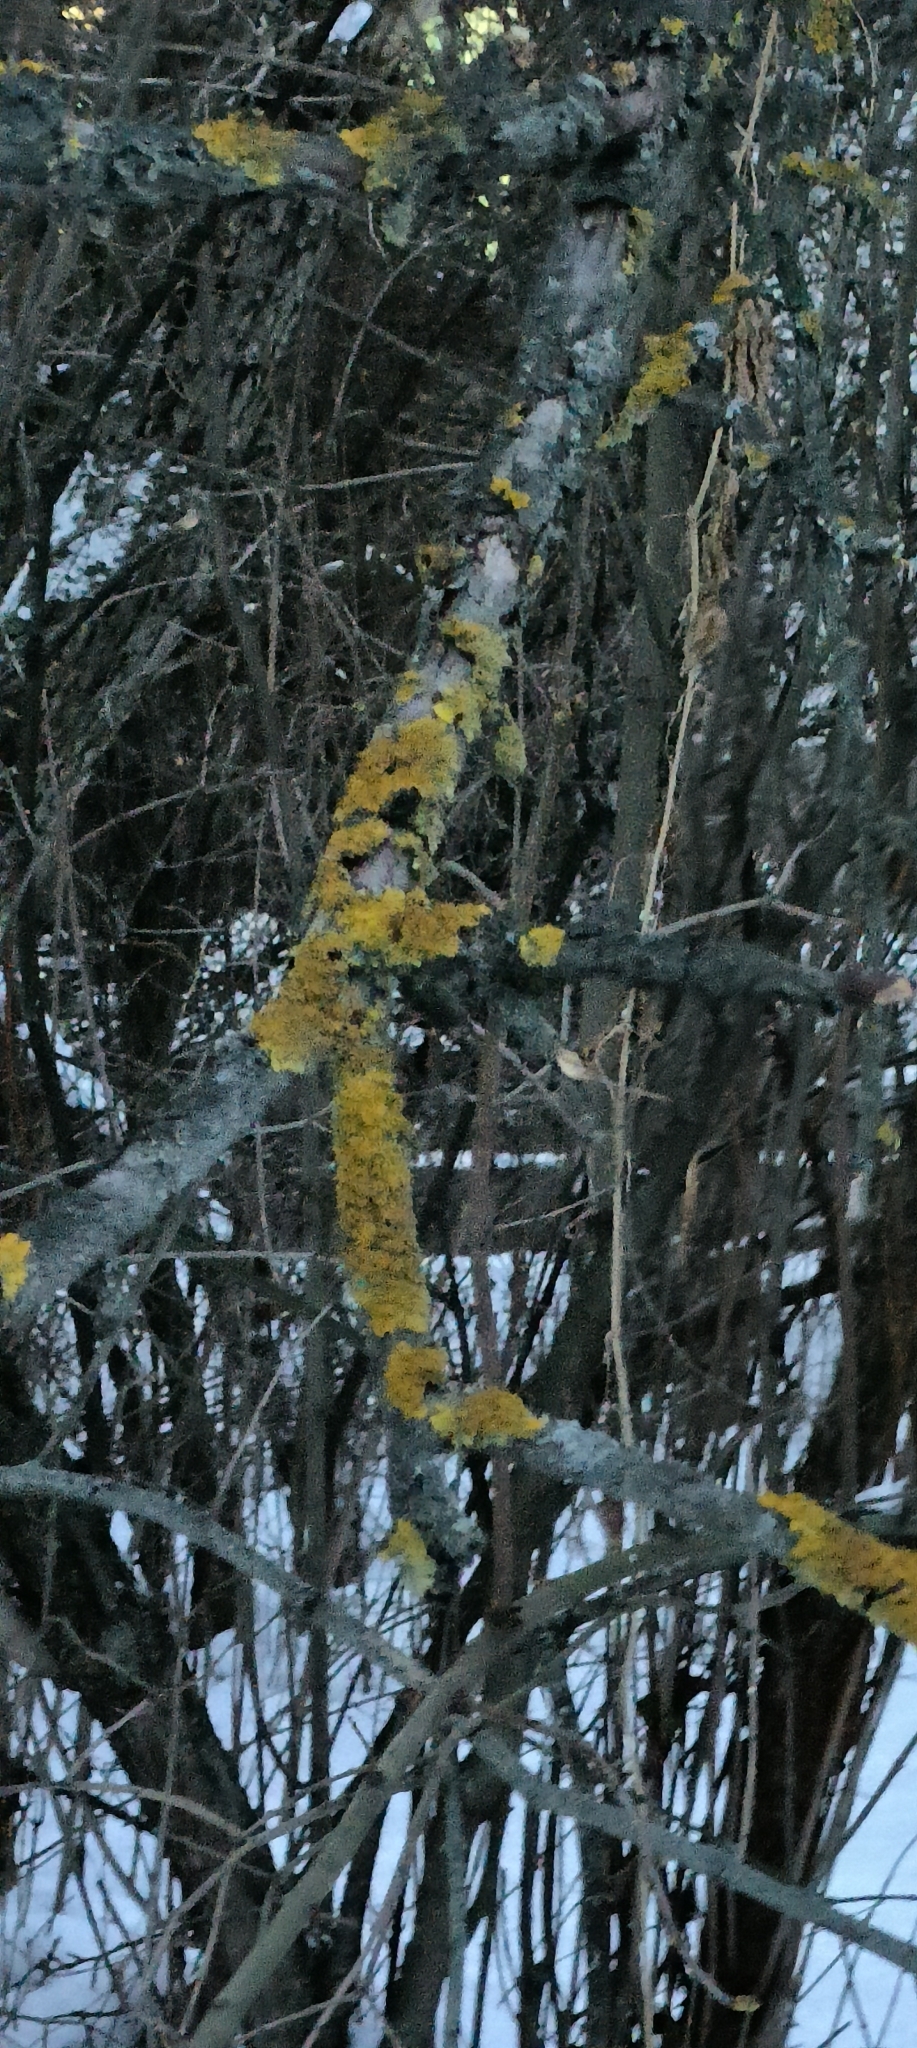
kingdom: Fungi
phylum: Ascomycota
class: Lecanoromycetes
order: Teloschistales
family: Teloschistaceae
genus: Xanthoria
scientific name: Xanthoria parietina
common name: Common orange lichen
